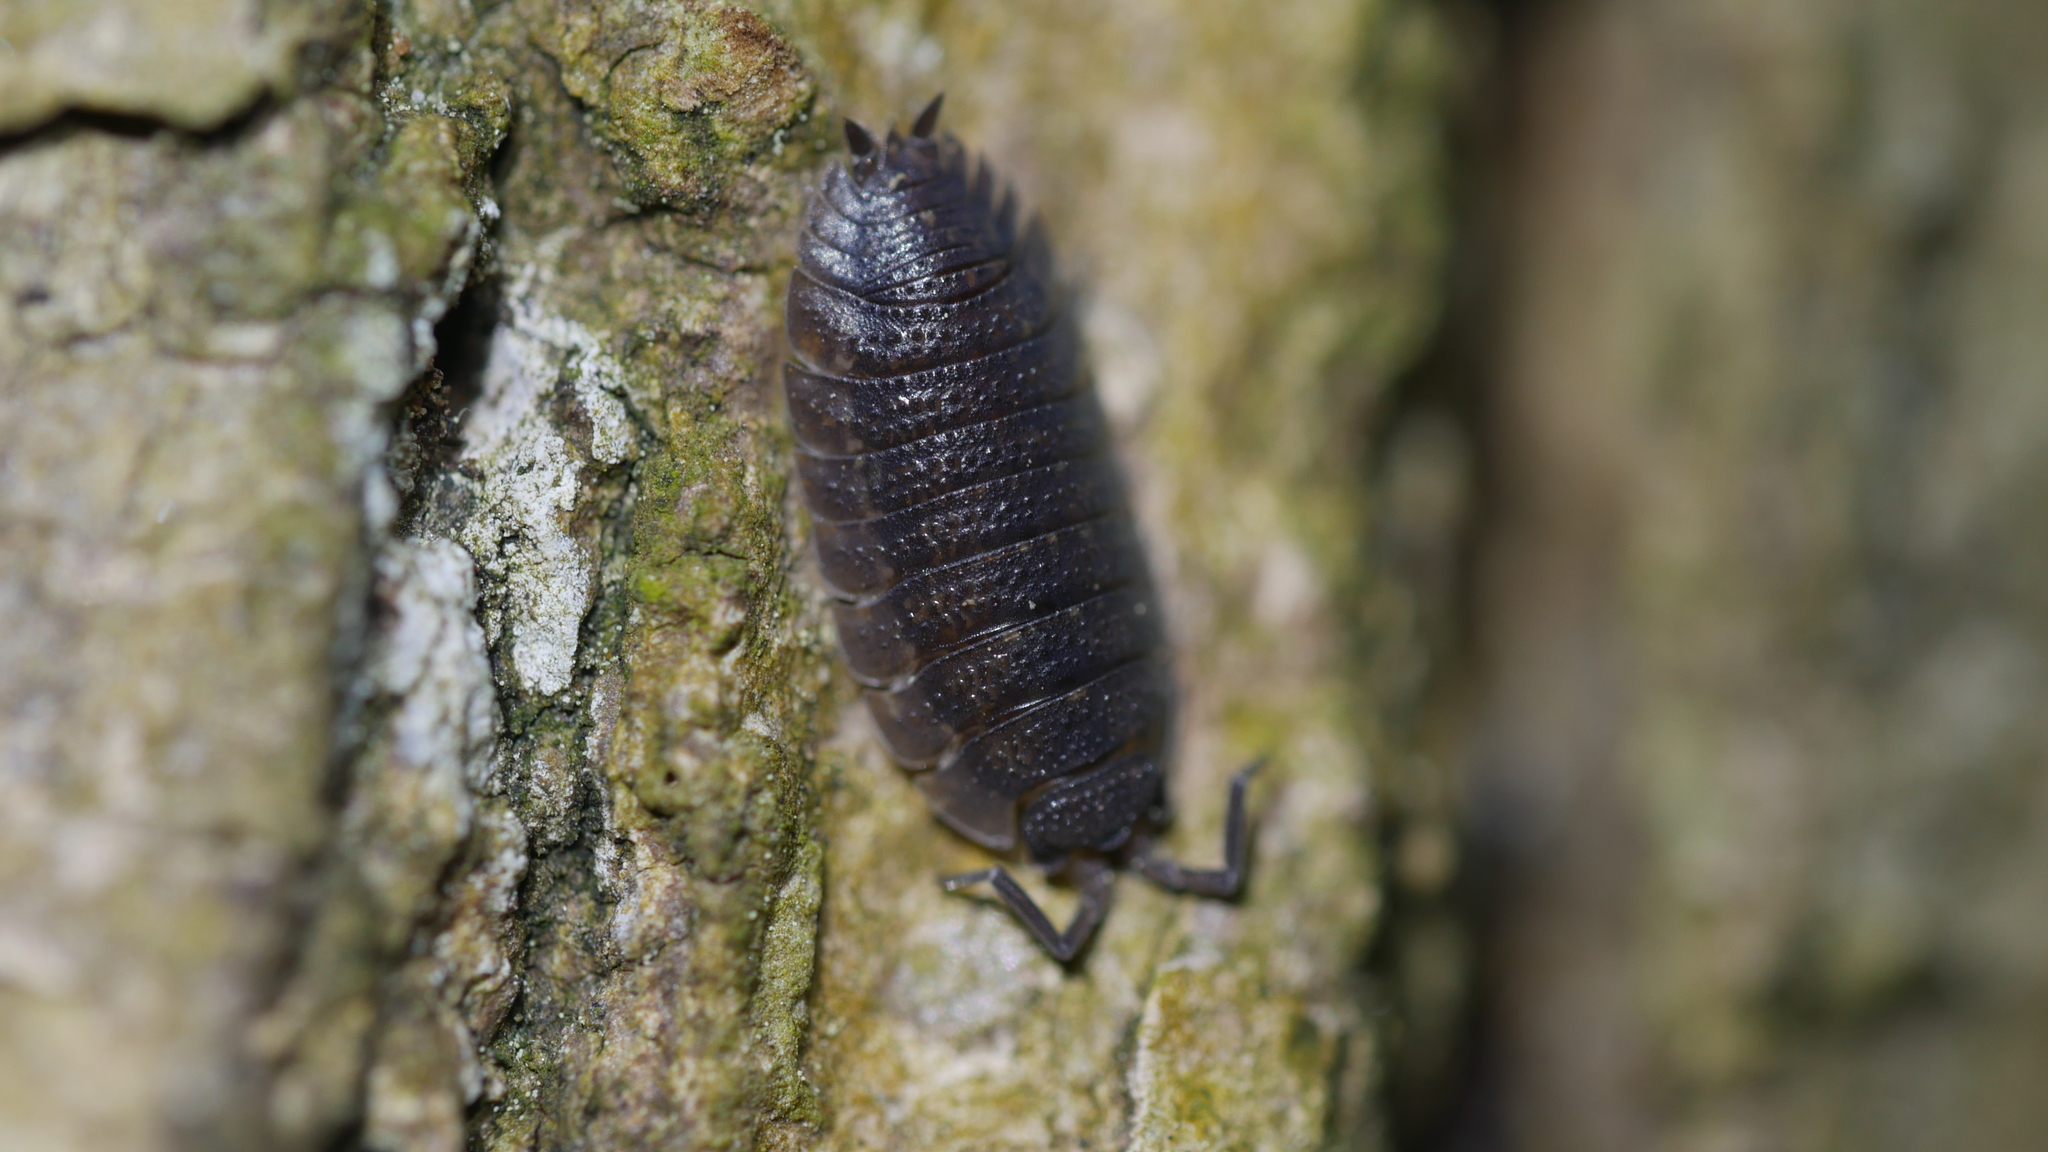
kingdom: Animalia
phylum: Arthropoda
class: Malacostraca
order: Isopoda
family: Porcellionidae
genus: Porcellio
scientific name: Porcellio scaber
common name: Common rough woodlouse
